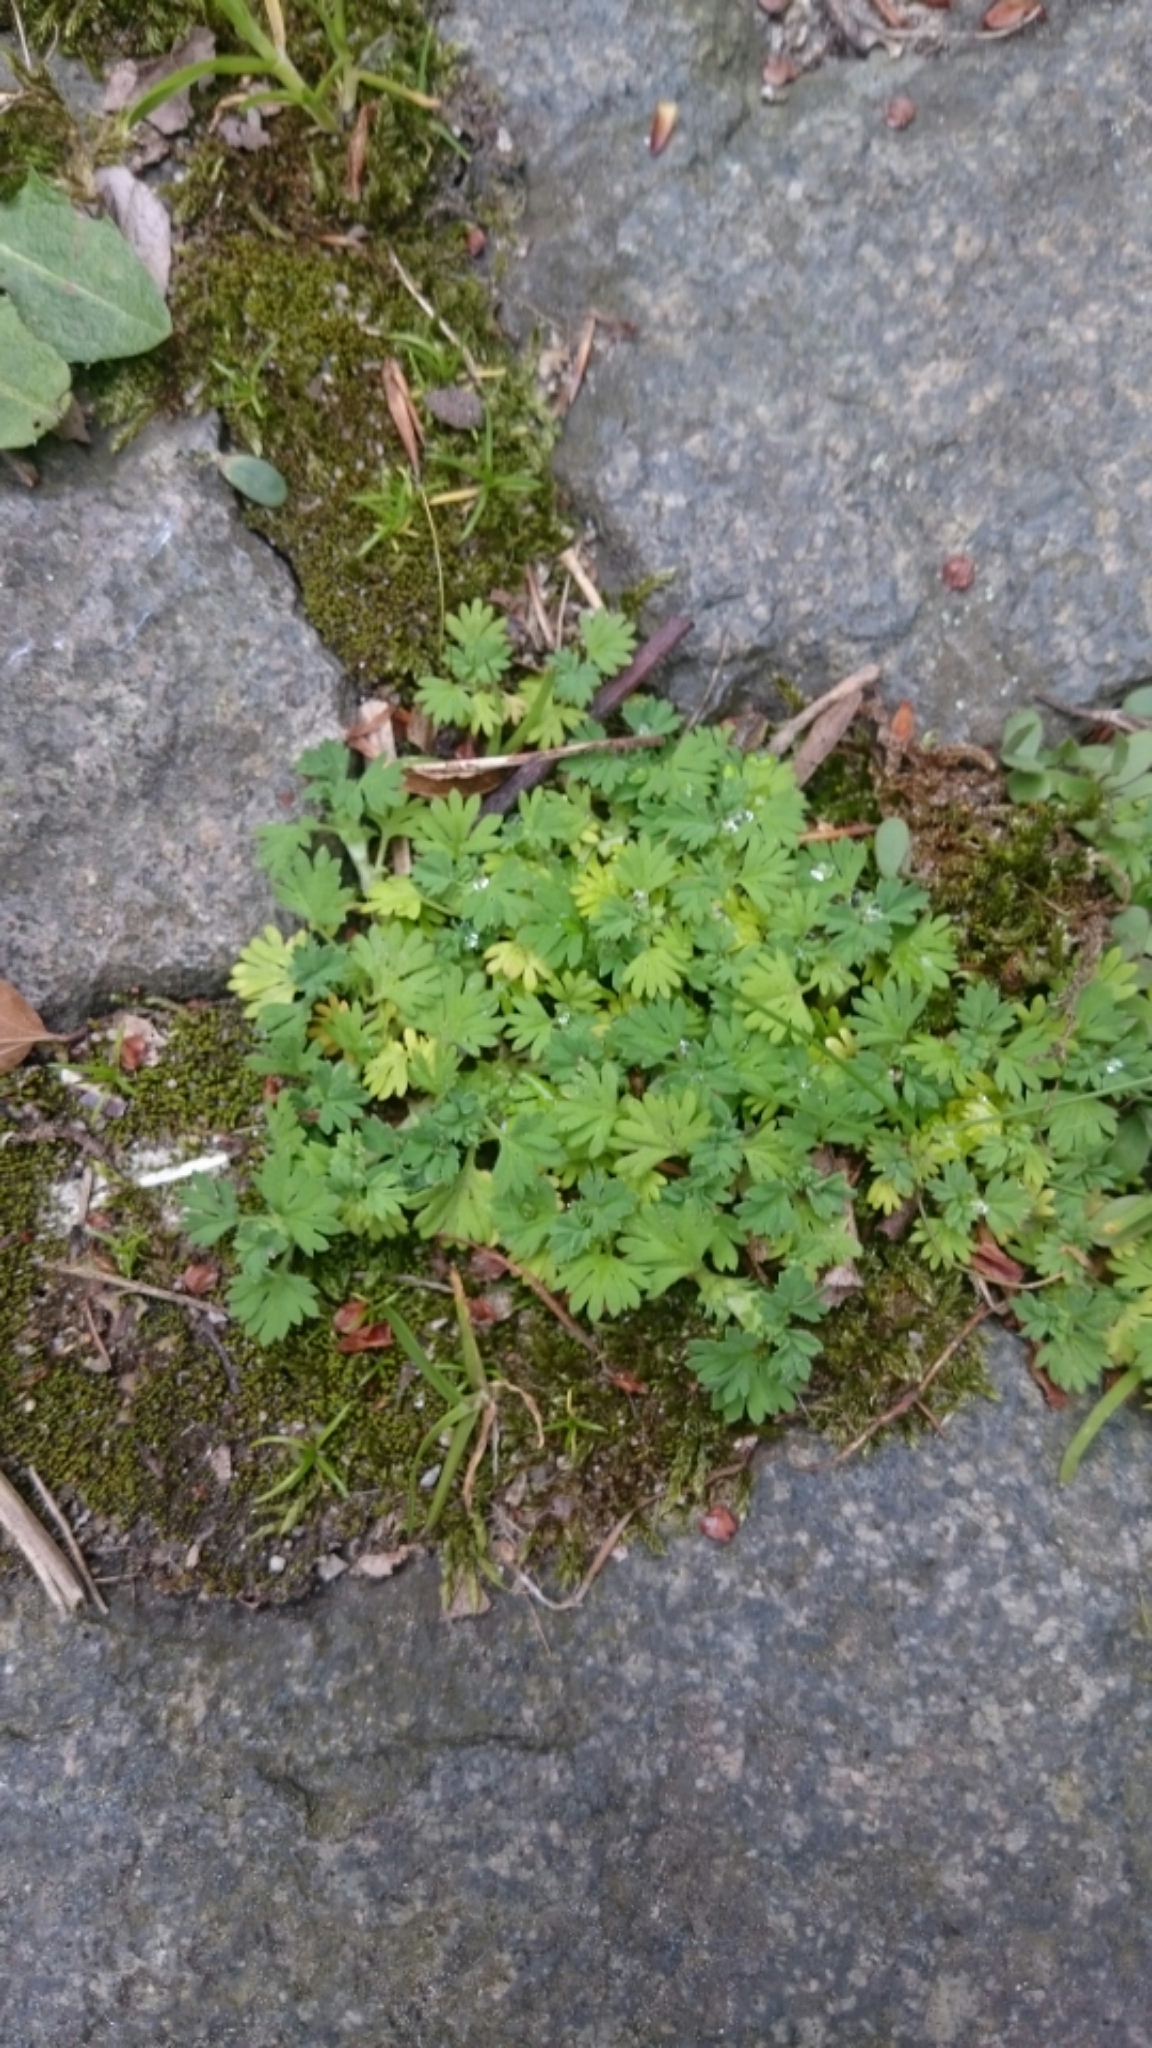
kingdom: Plantae
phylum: Tracheophyta
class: Magnoliopsida
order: Rosales
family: Rosaceae
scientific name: Rosaceae
